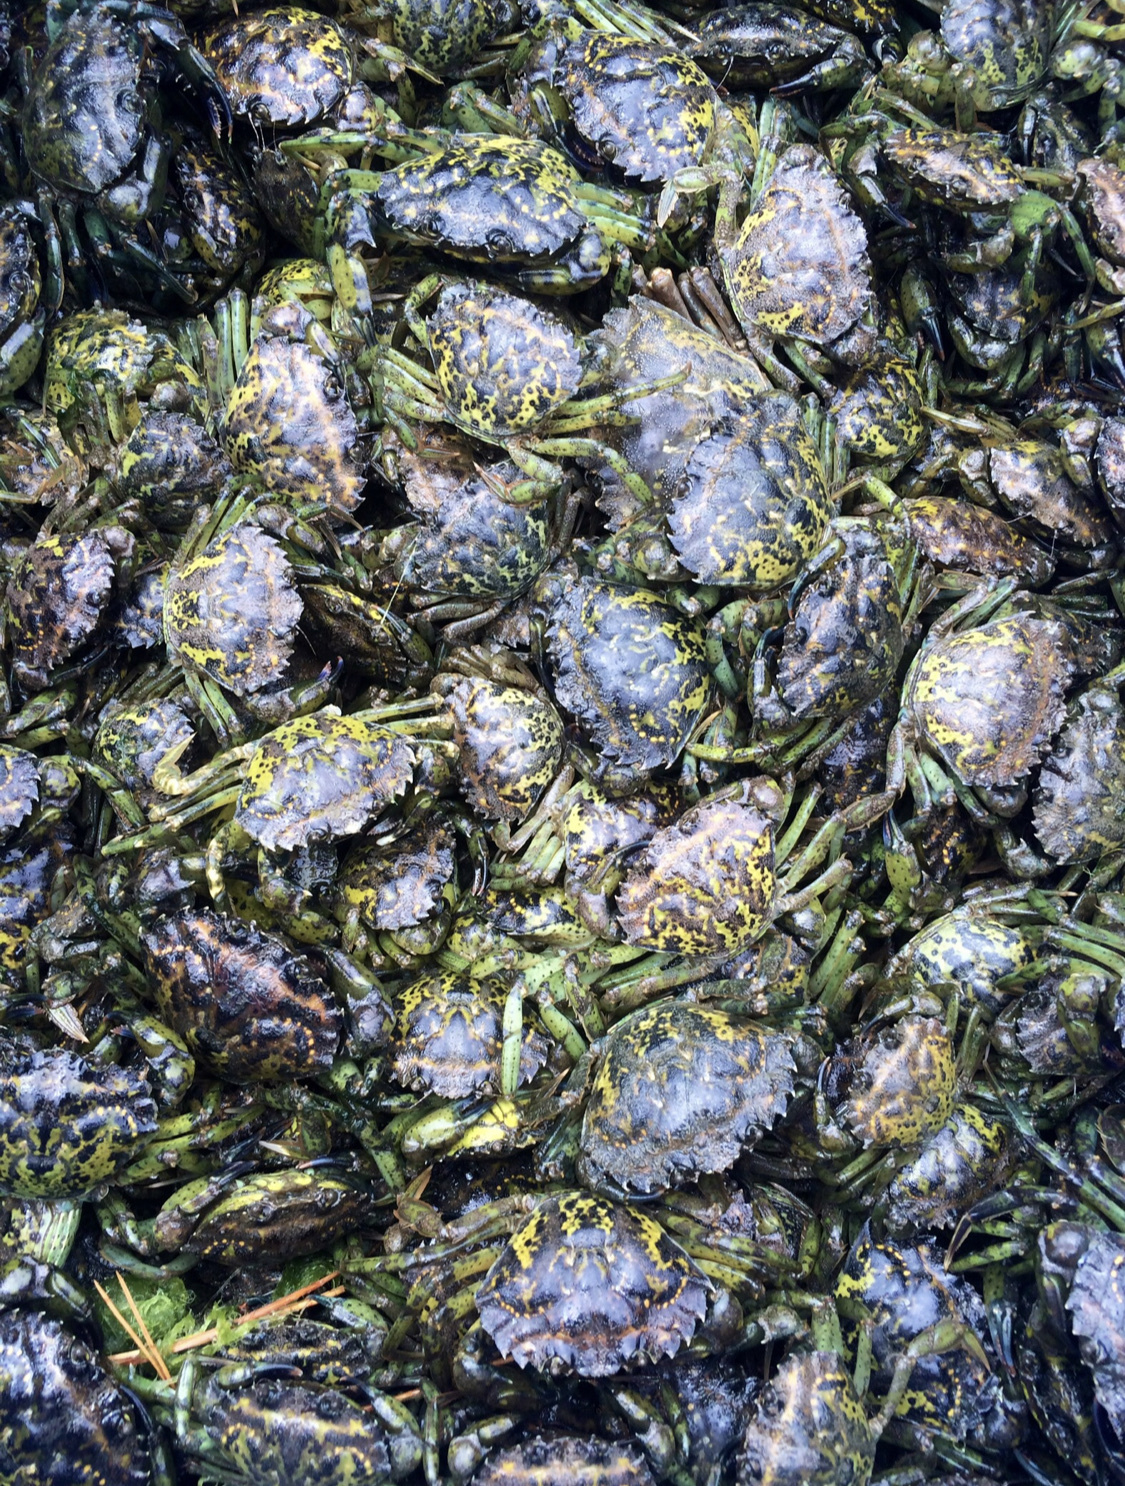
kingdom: Animalia
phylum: Arthropoda
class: Malacostraca
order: Decapoda
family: Carcinidae
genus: Carcinus
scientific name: Carcinus maenas
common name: European green crab
